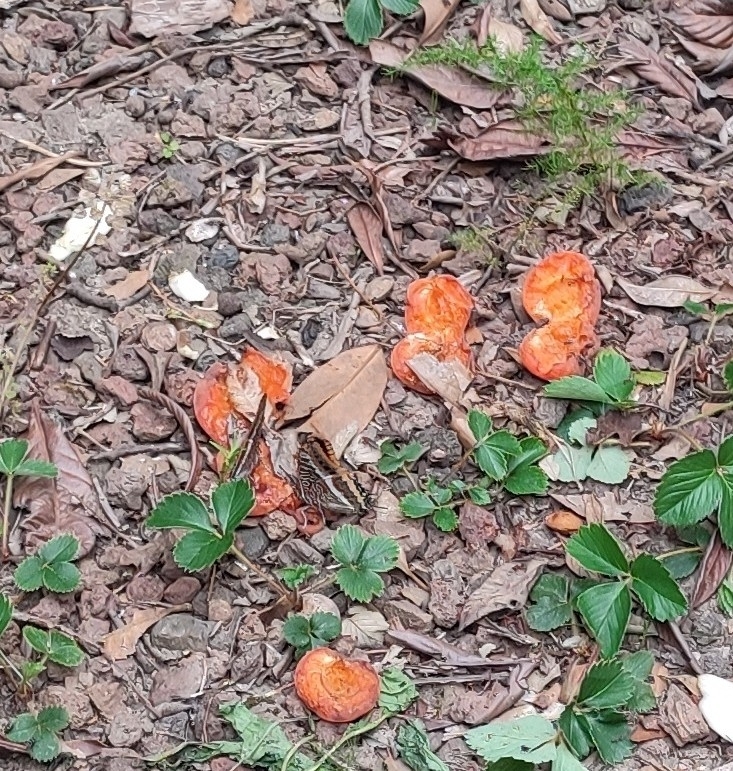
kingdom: Animalia
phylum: Arthropoda
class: Insecta
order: Lepidoptera
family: Nymphalidae
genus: Charaxes
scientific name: Charaxes jasius
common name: Two tailed pasha
